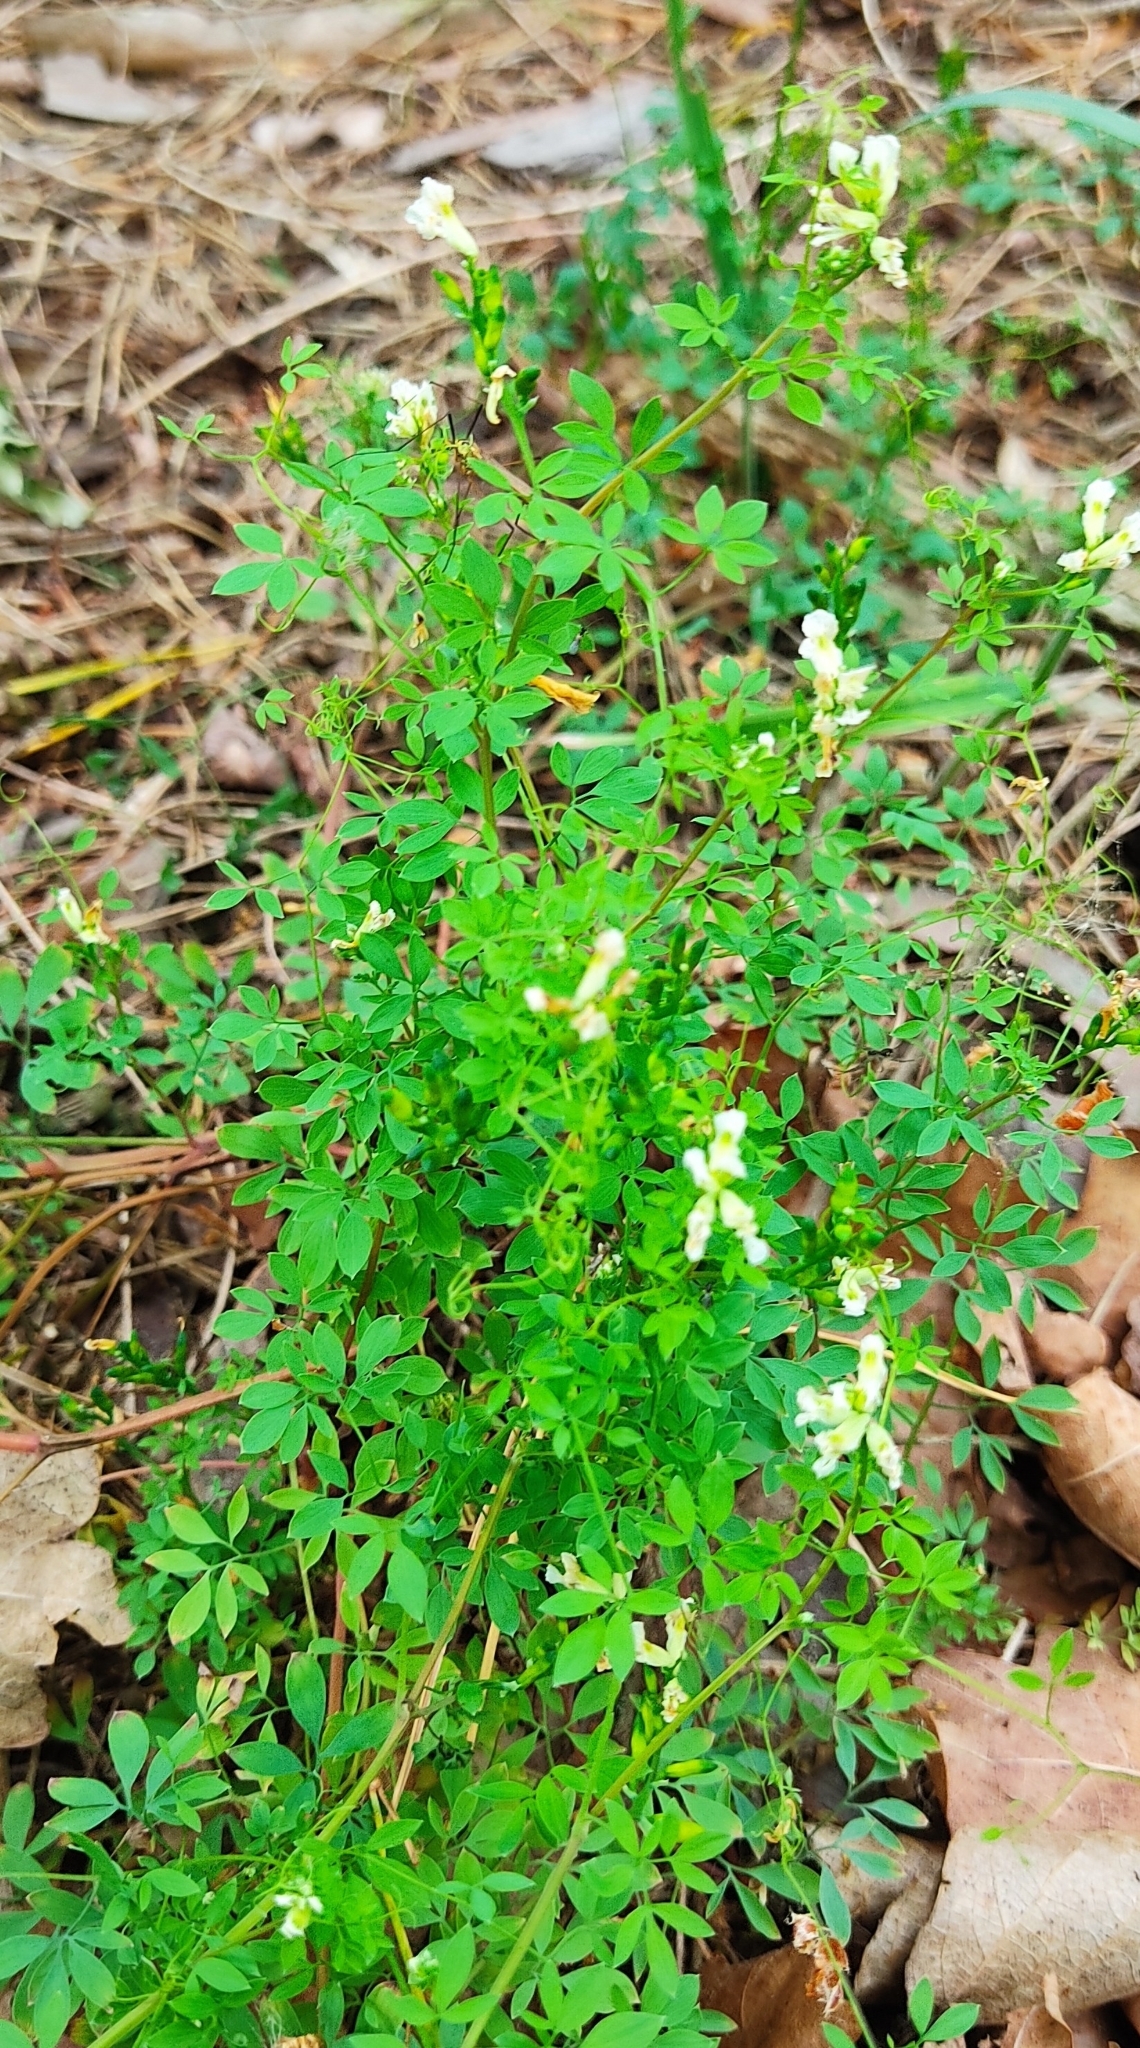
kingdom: Plantae
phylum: Tracheophyta
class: Magnoliopsida
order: Ranunculales
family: Papaveraceae
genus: Ceratocapnos
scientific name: Ceratocapnos claviculata
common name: Climbing corydalis
